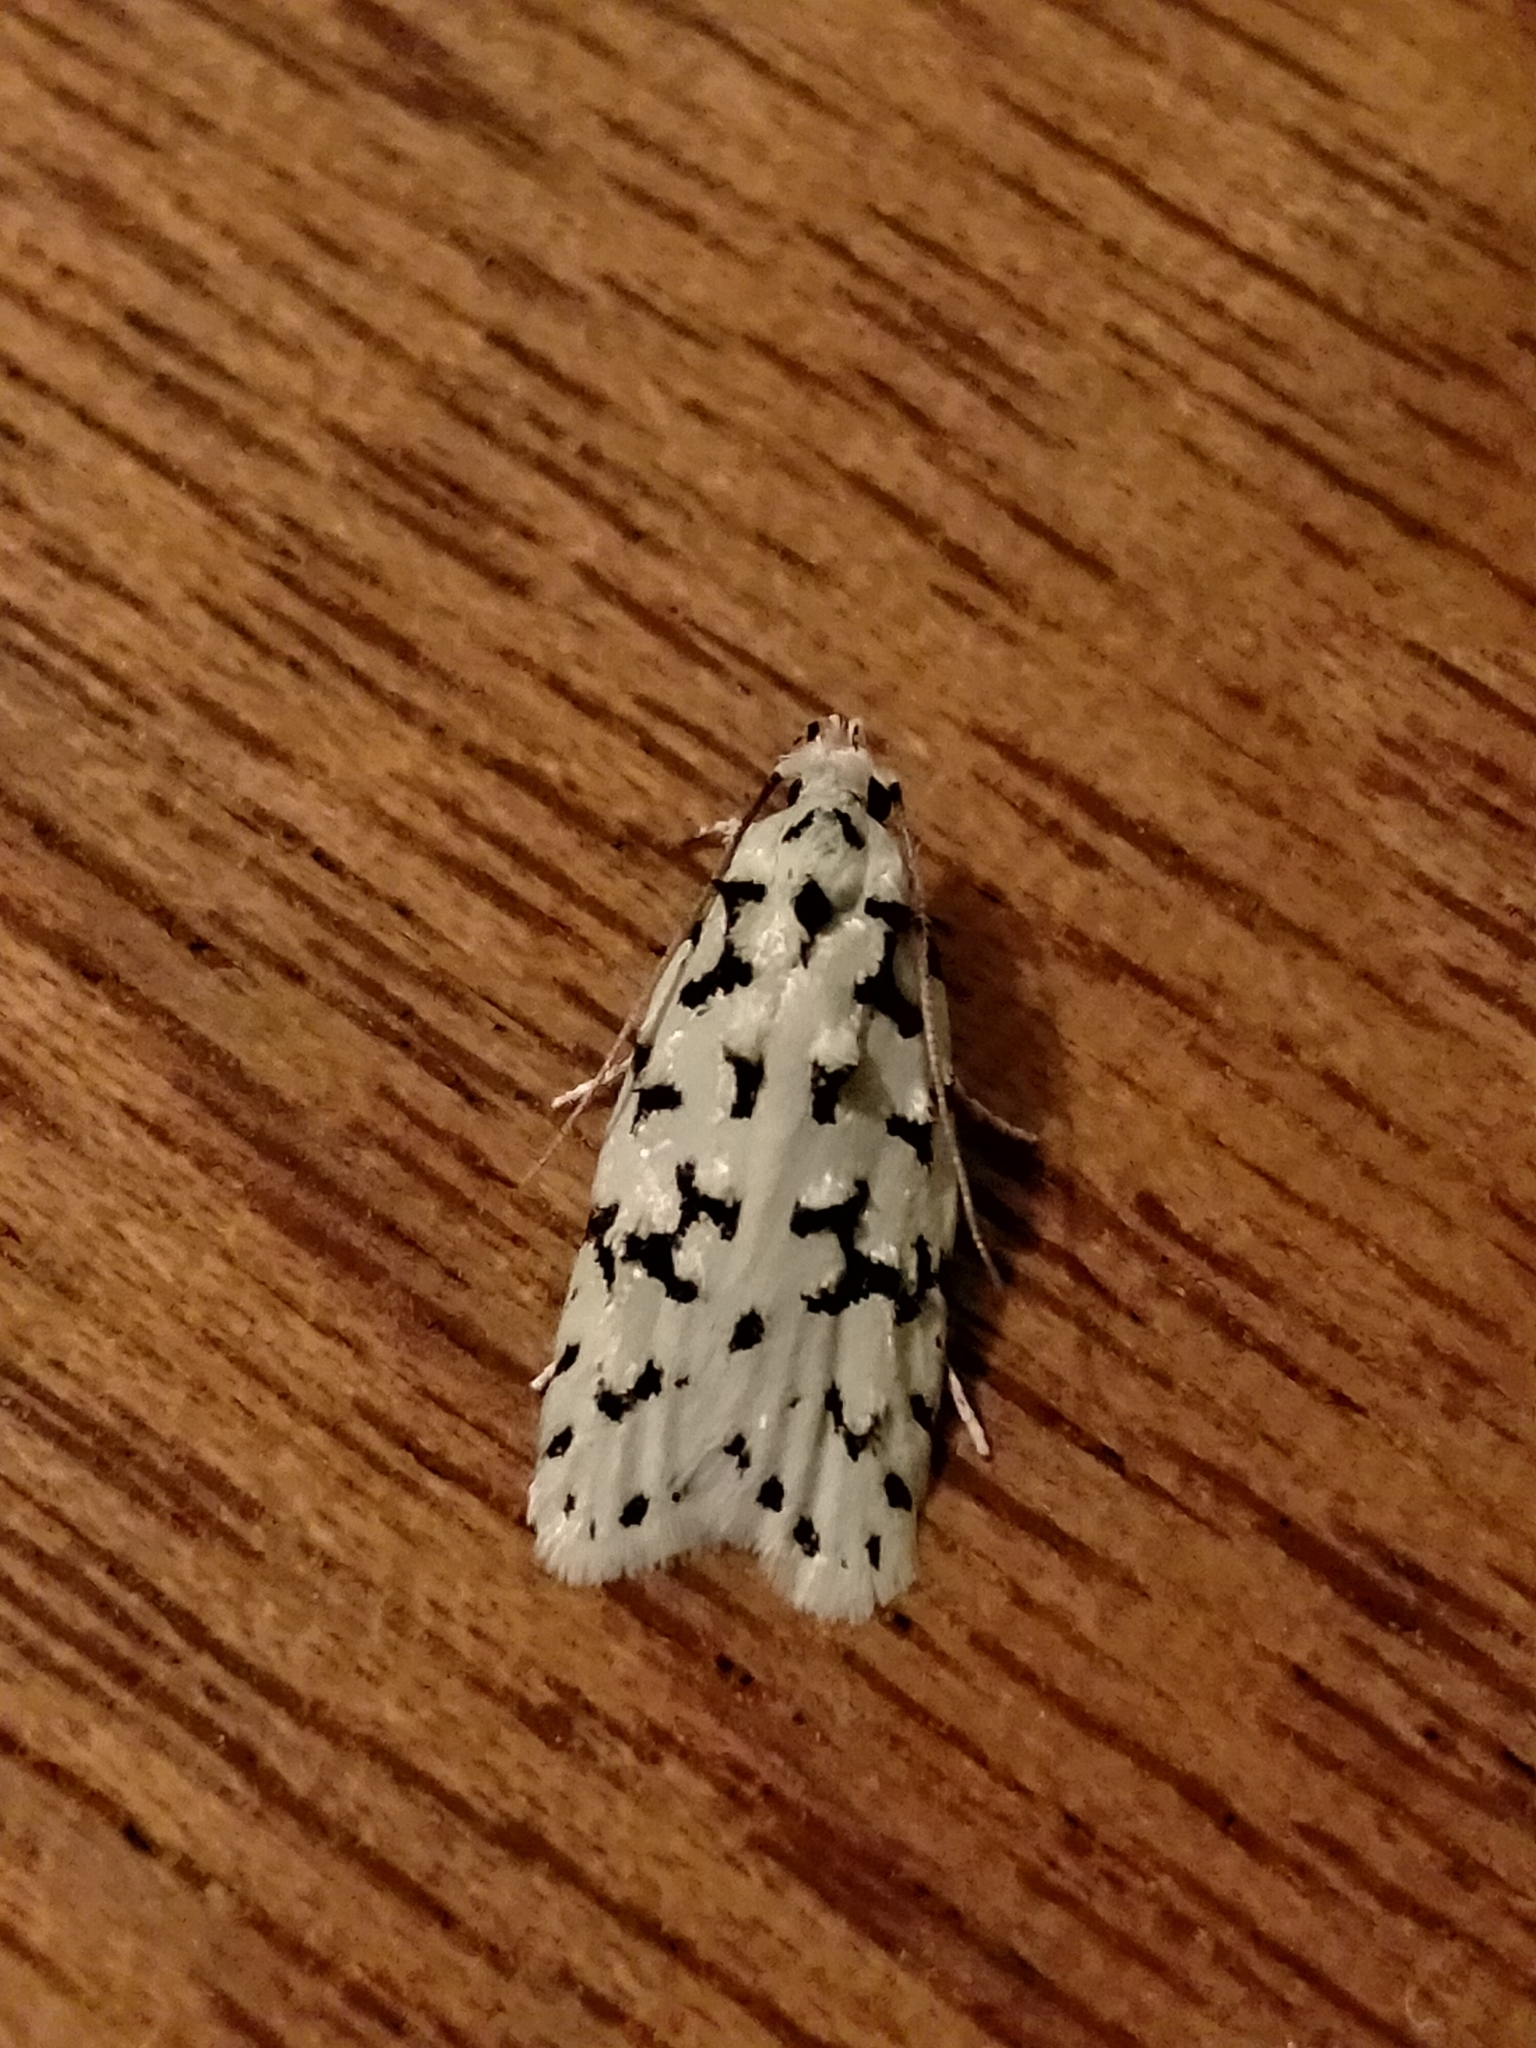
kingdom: Animalia
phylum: Arthropoda
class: Insecta
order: Lepidoptera
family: Oecophoridae
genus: Izatha
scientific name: Izatha huttoni
